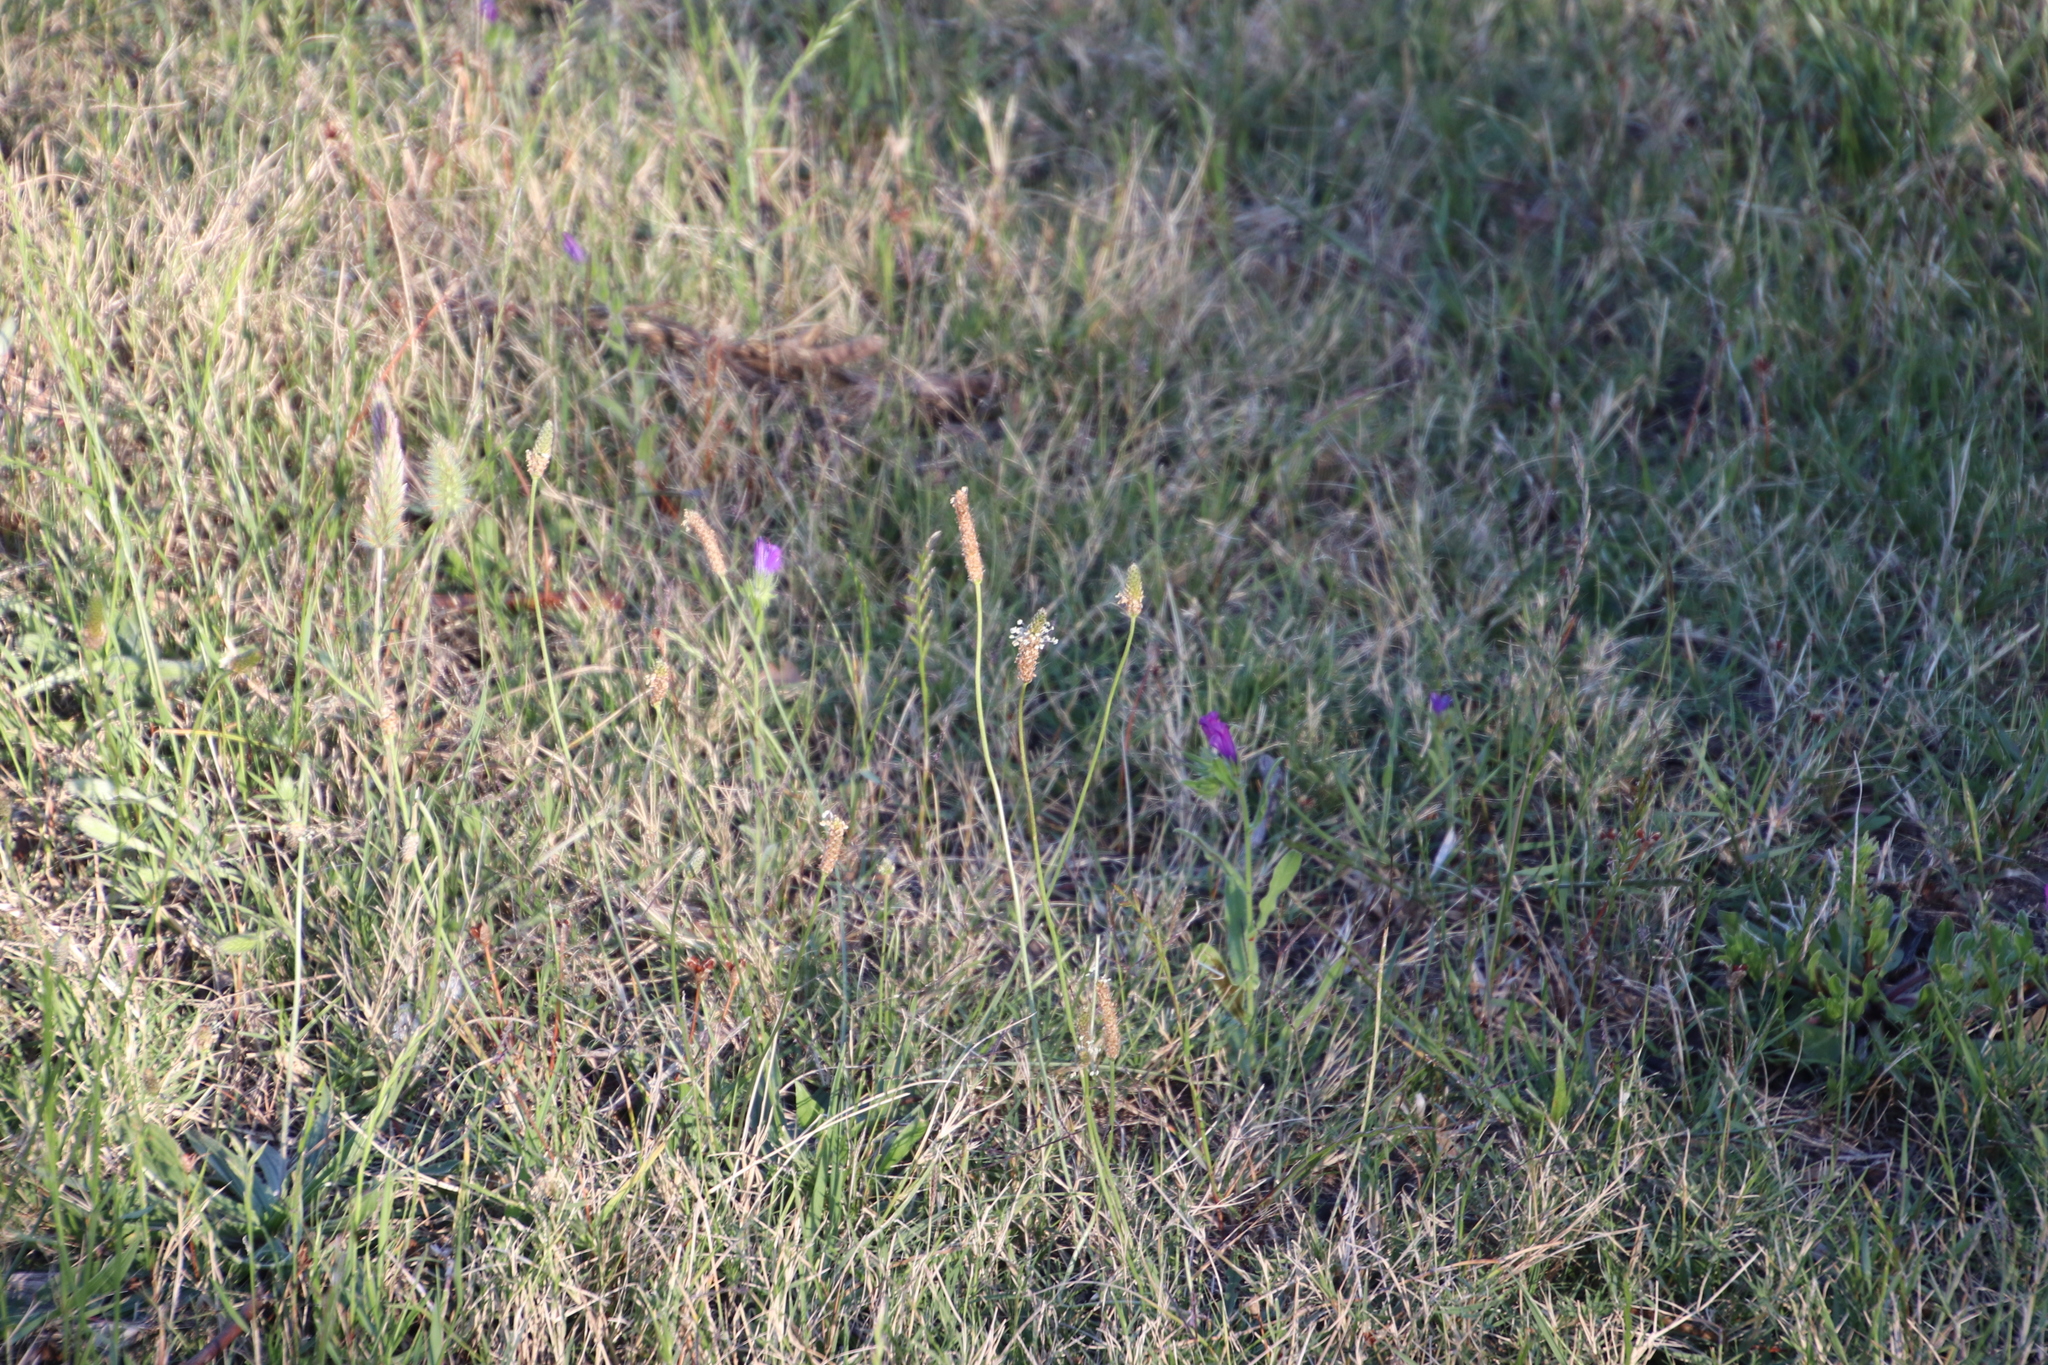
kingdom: Plantae
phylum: Tracheophyta
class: Magnoliopsida
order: Lamiales
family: Plantaginaceae
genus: Plantago
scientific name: Plantago lanceolata
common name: Ribwort plantain
